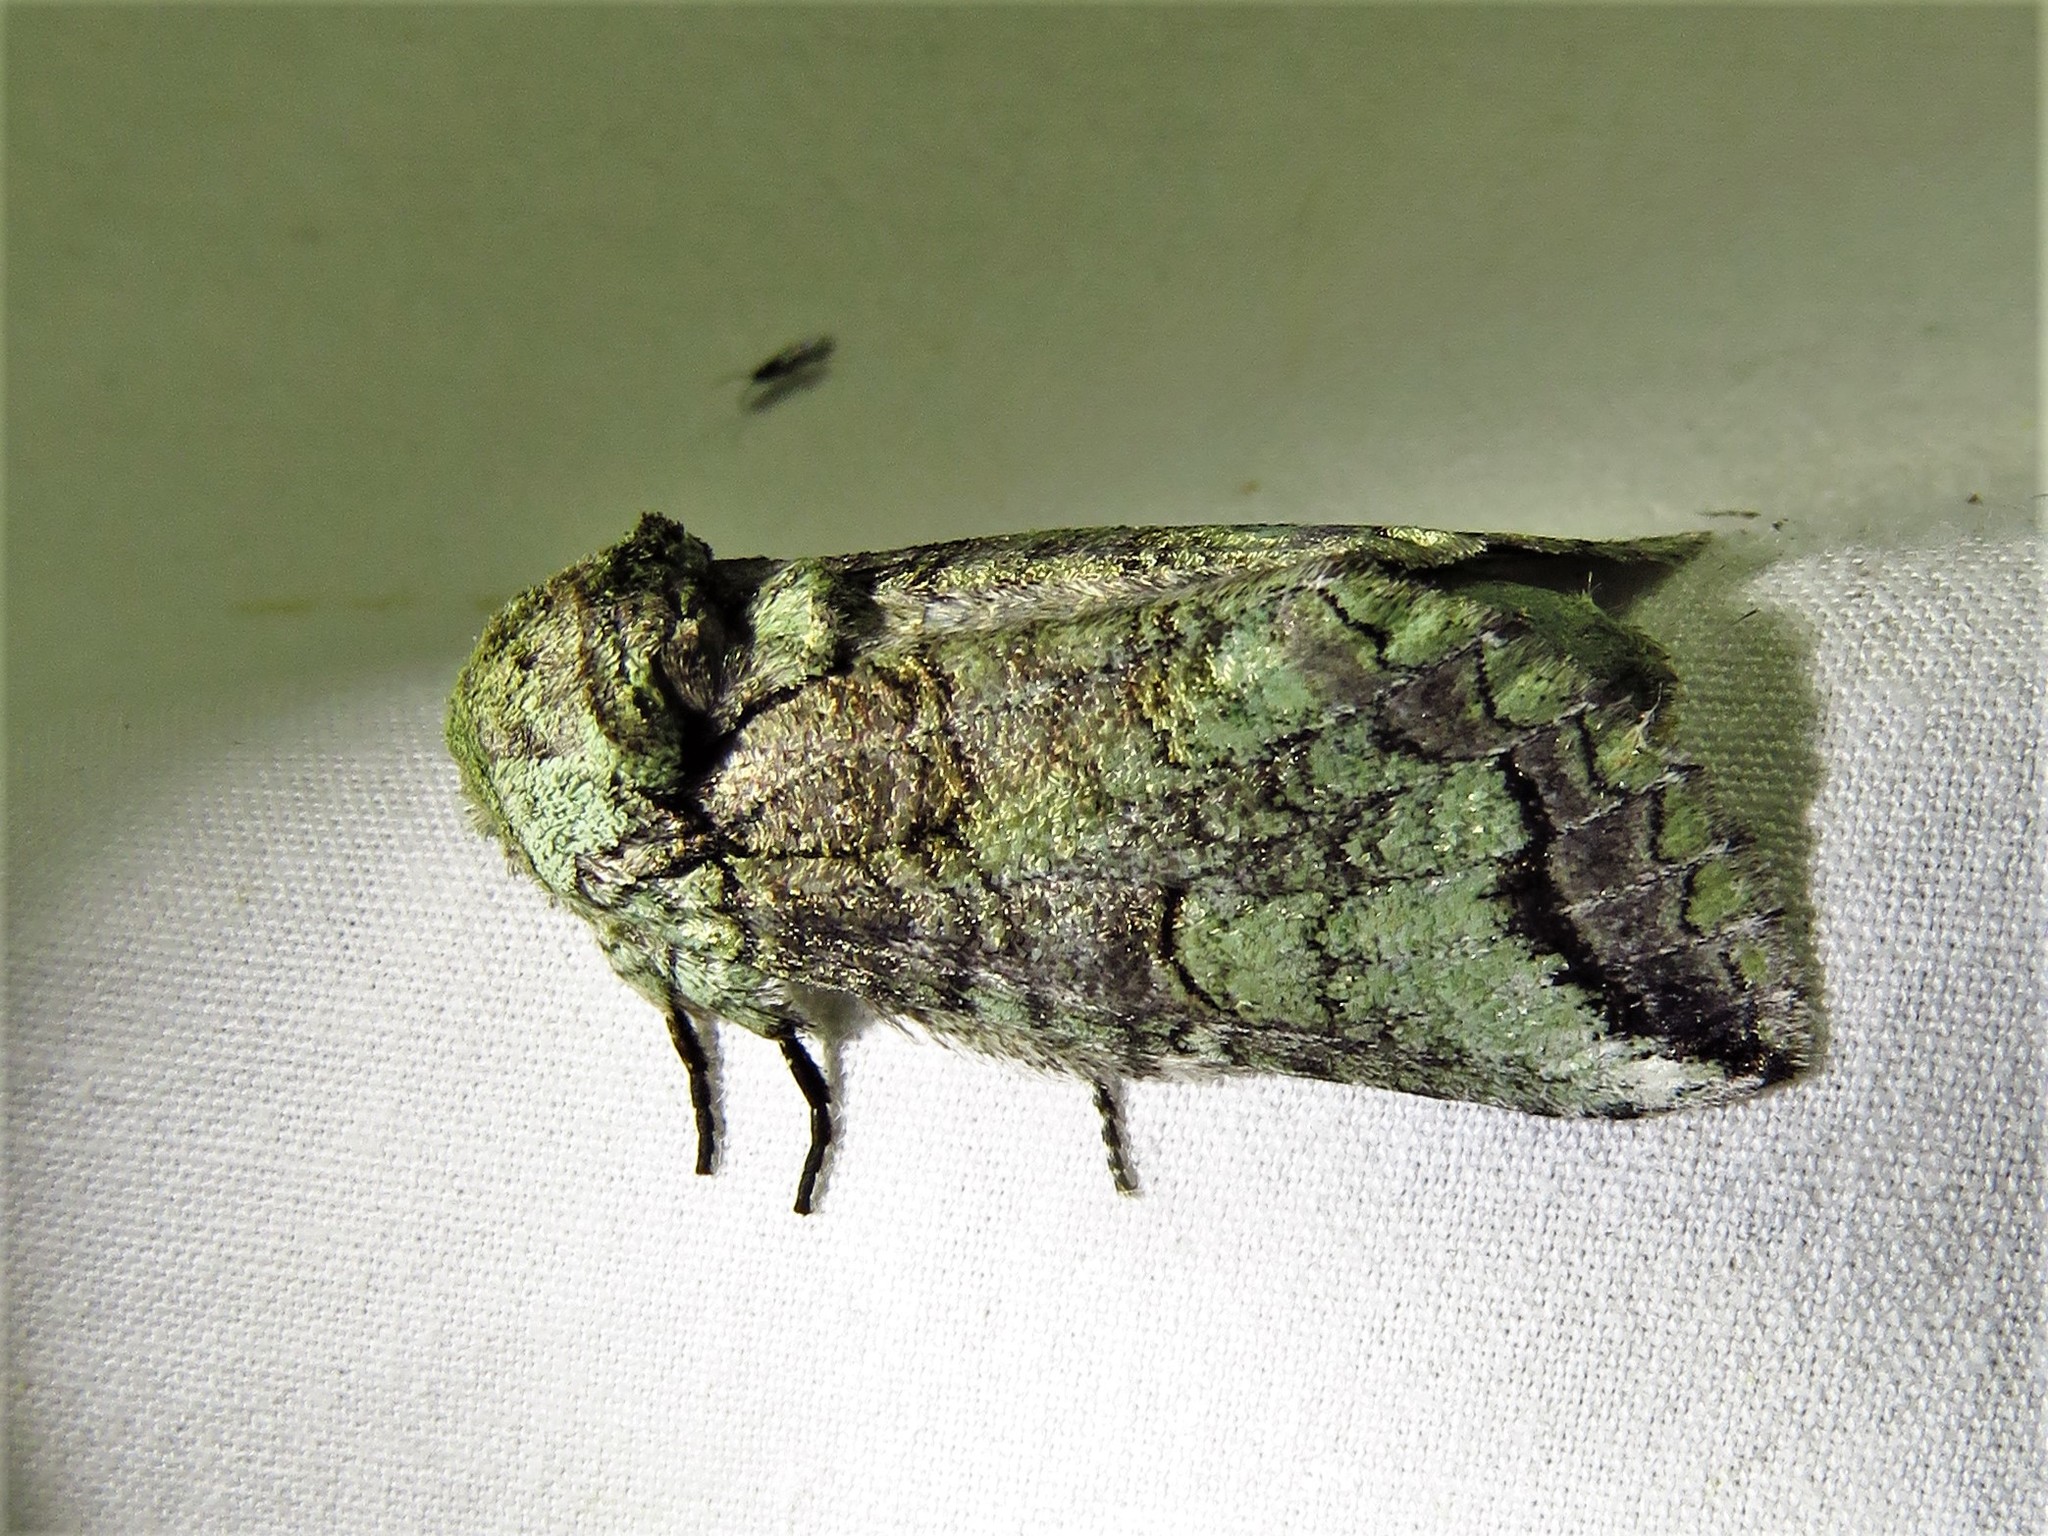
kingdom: Animalia
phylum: Arthropoda
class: Insecta
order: Lepidoptera
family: Notodontidae
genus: Heterocampa
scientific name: Heterocampa astartoides
